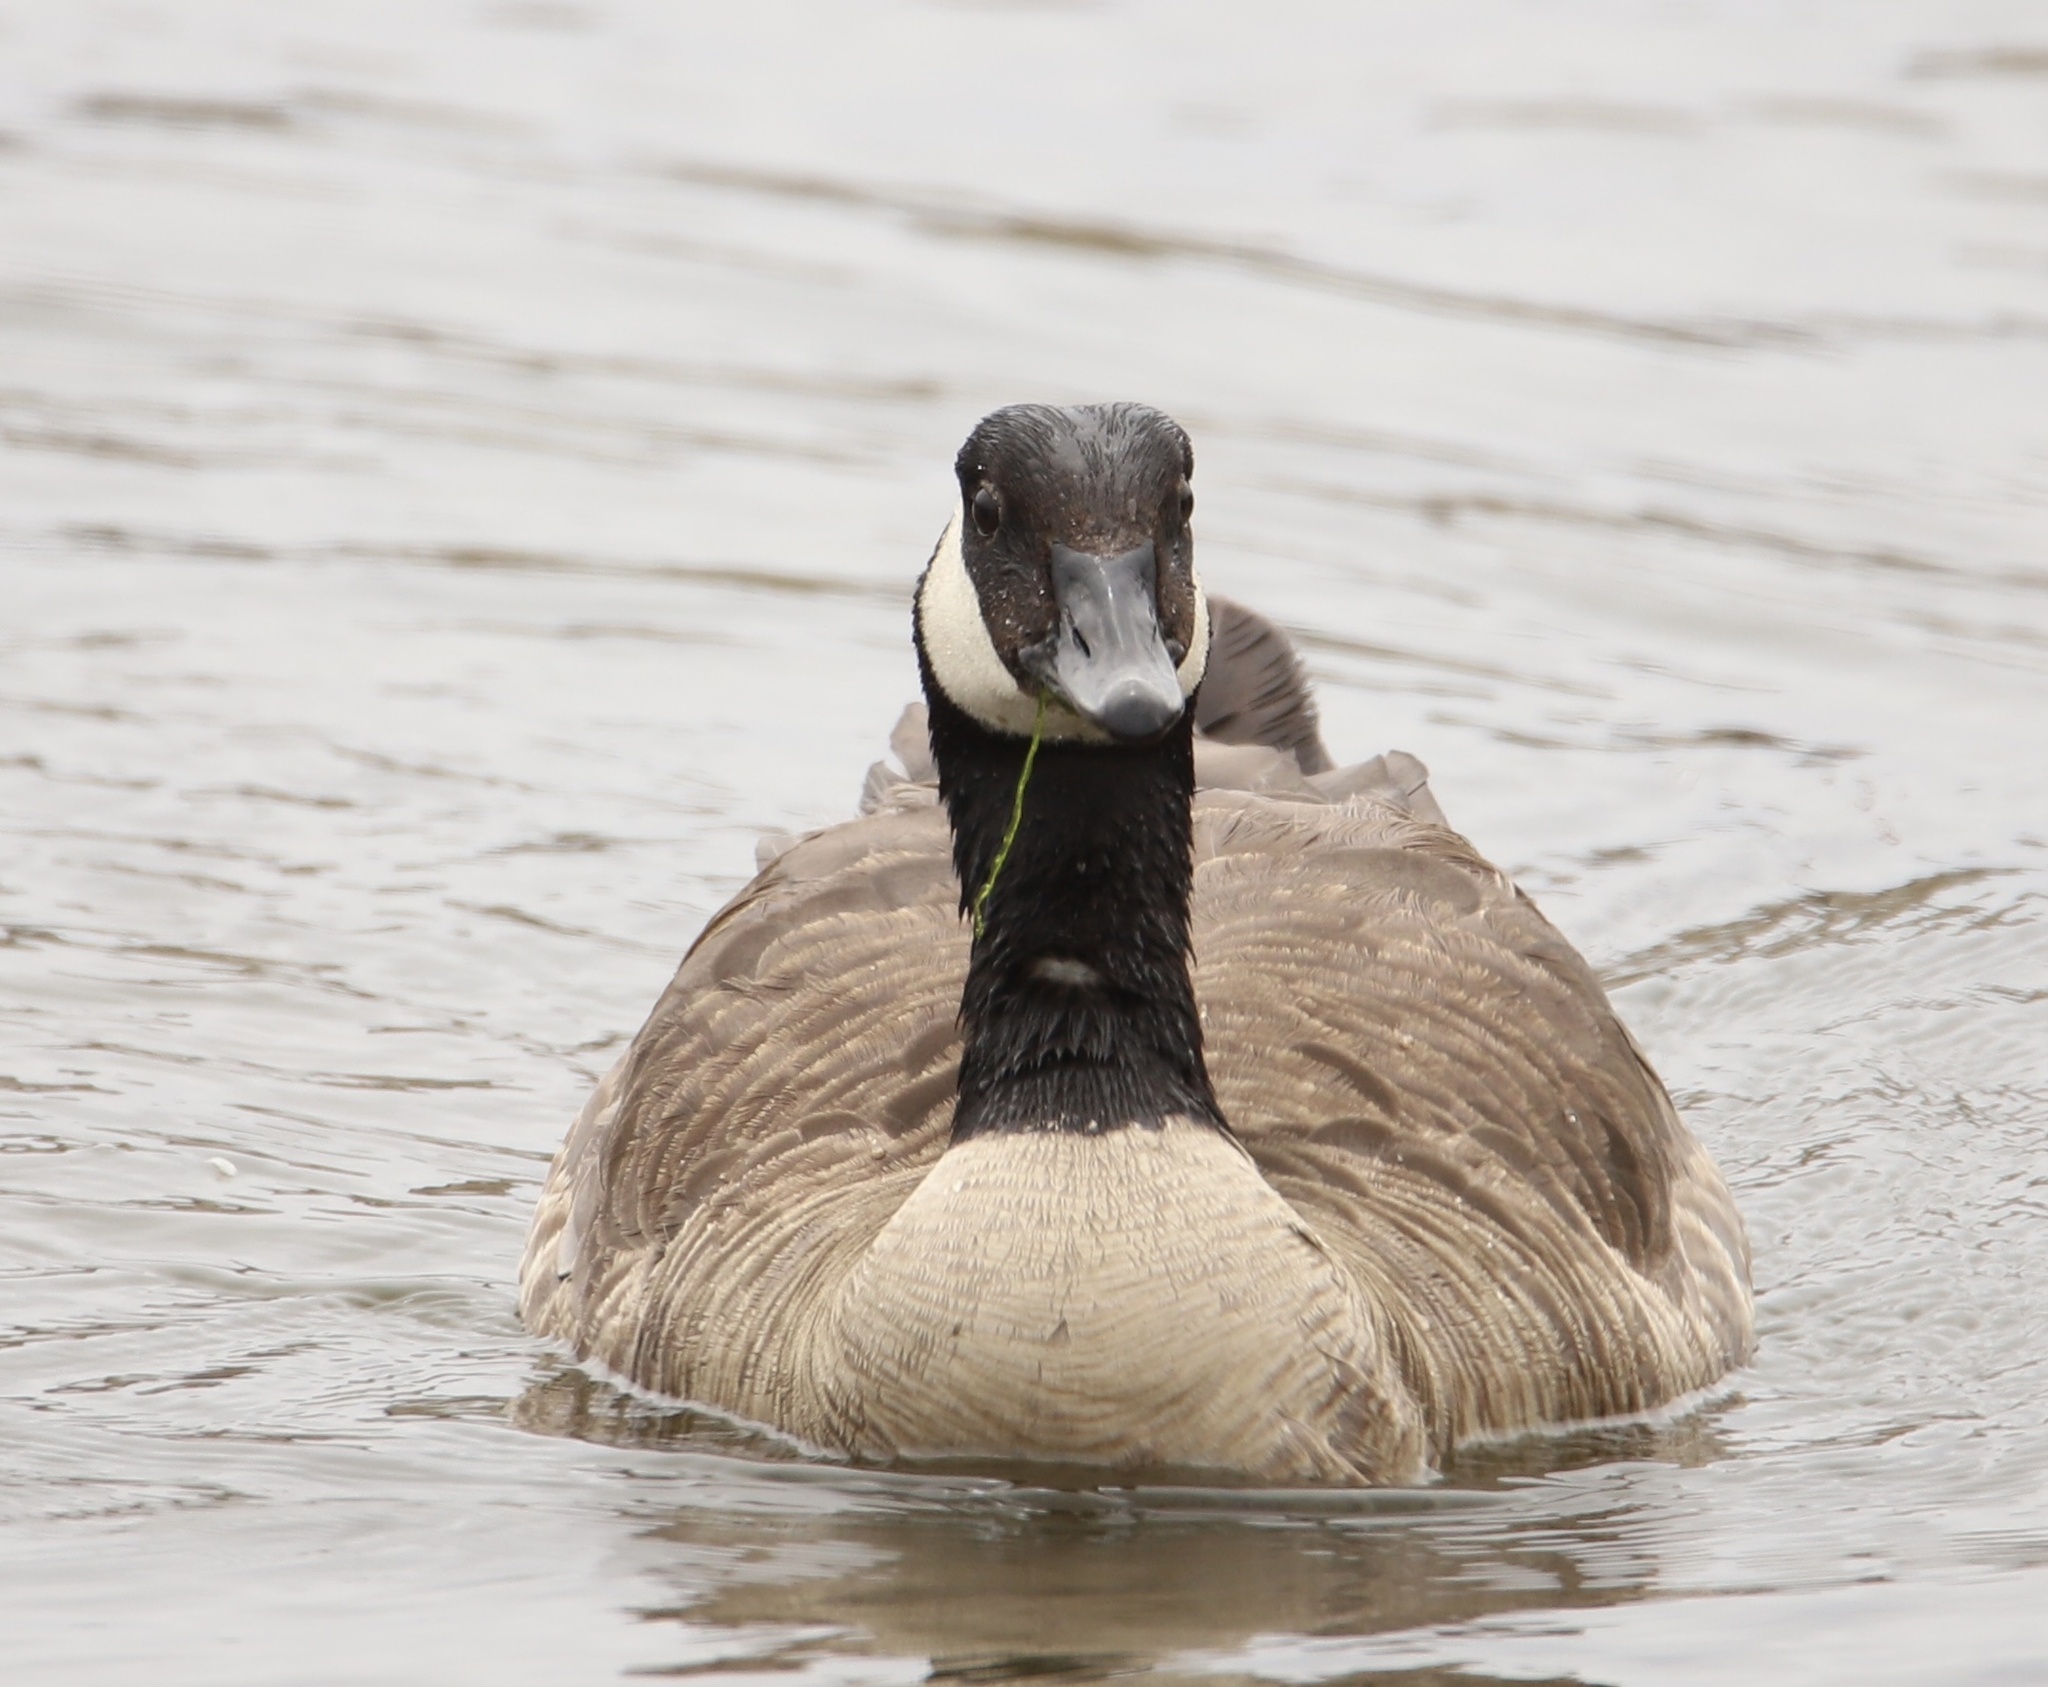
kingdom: Animalia
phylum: Chordata
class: Aves
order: Anseriformes
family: Anatidae
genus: Branta
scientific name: Branta canadensis
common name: Canada goose
